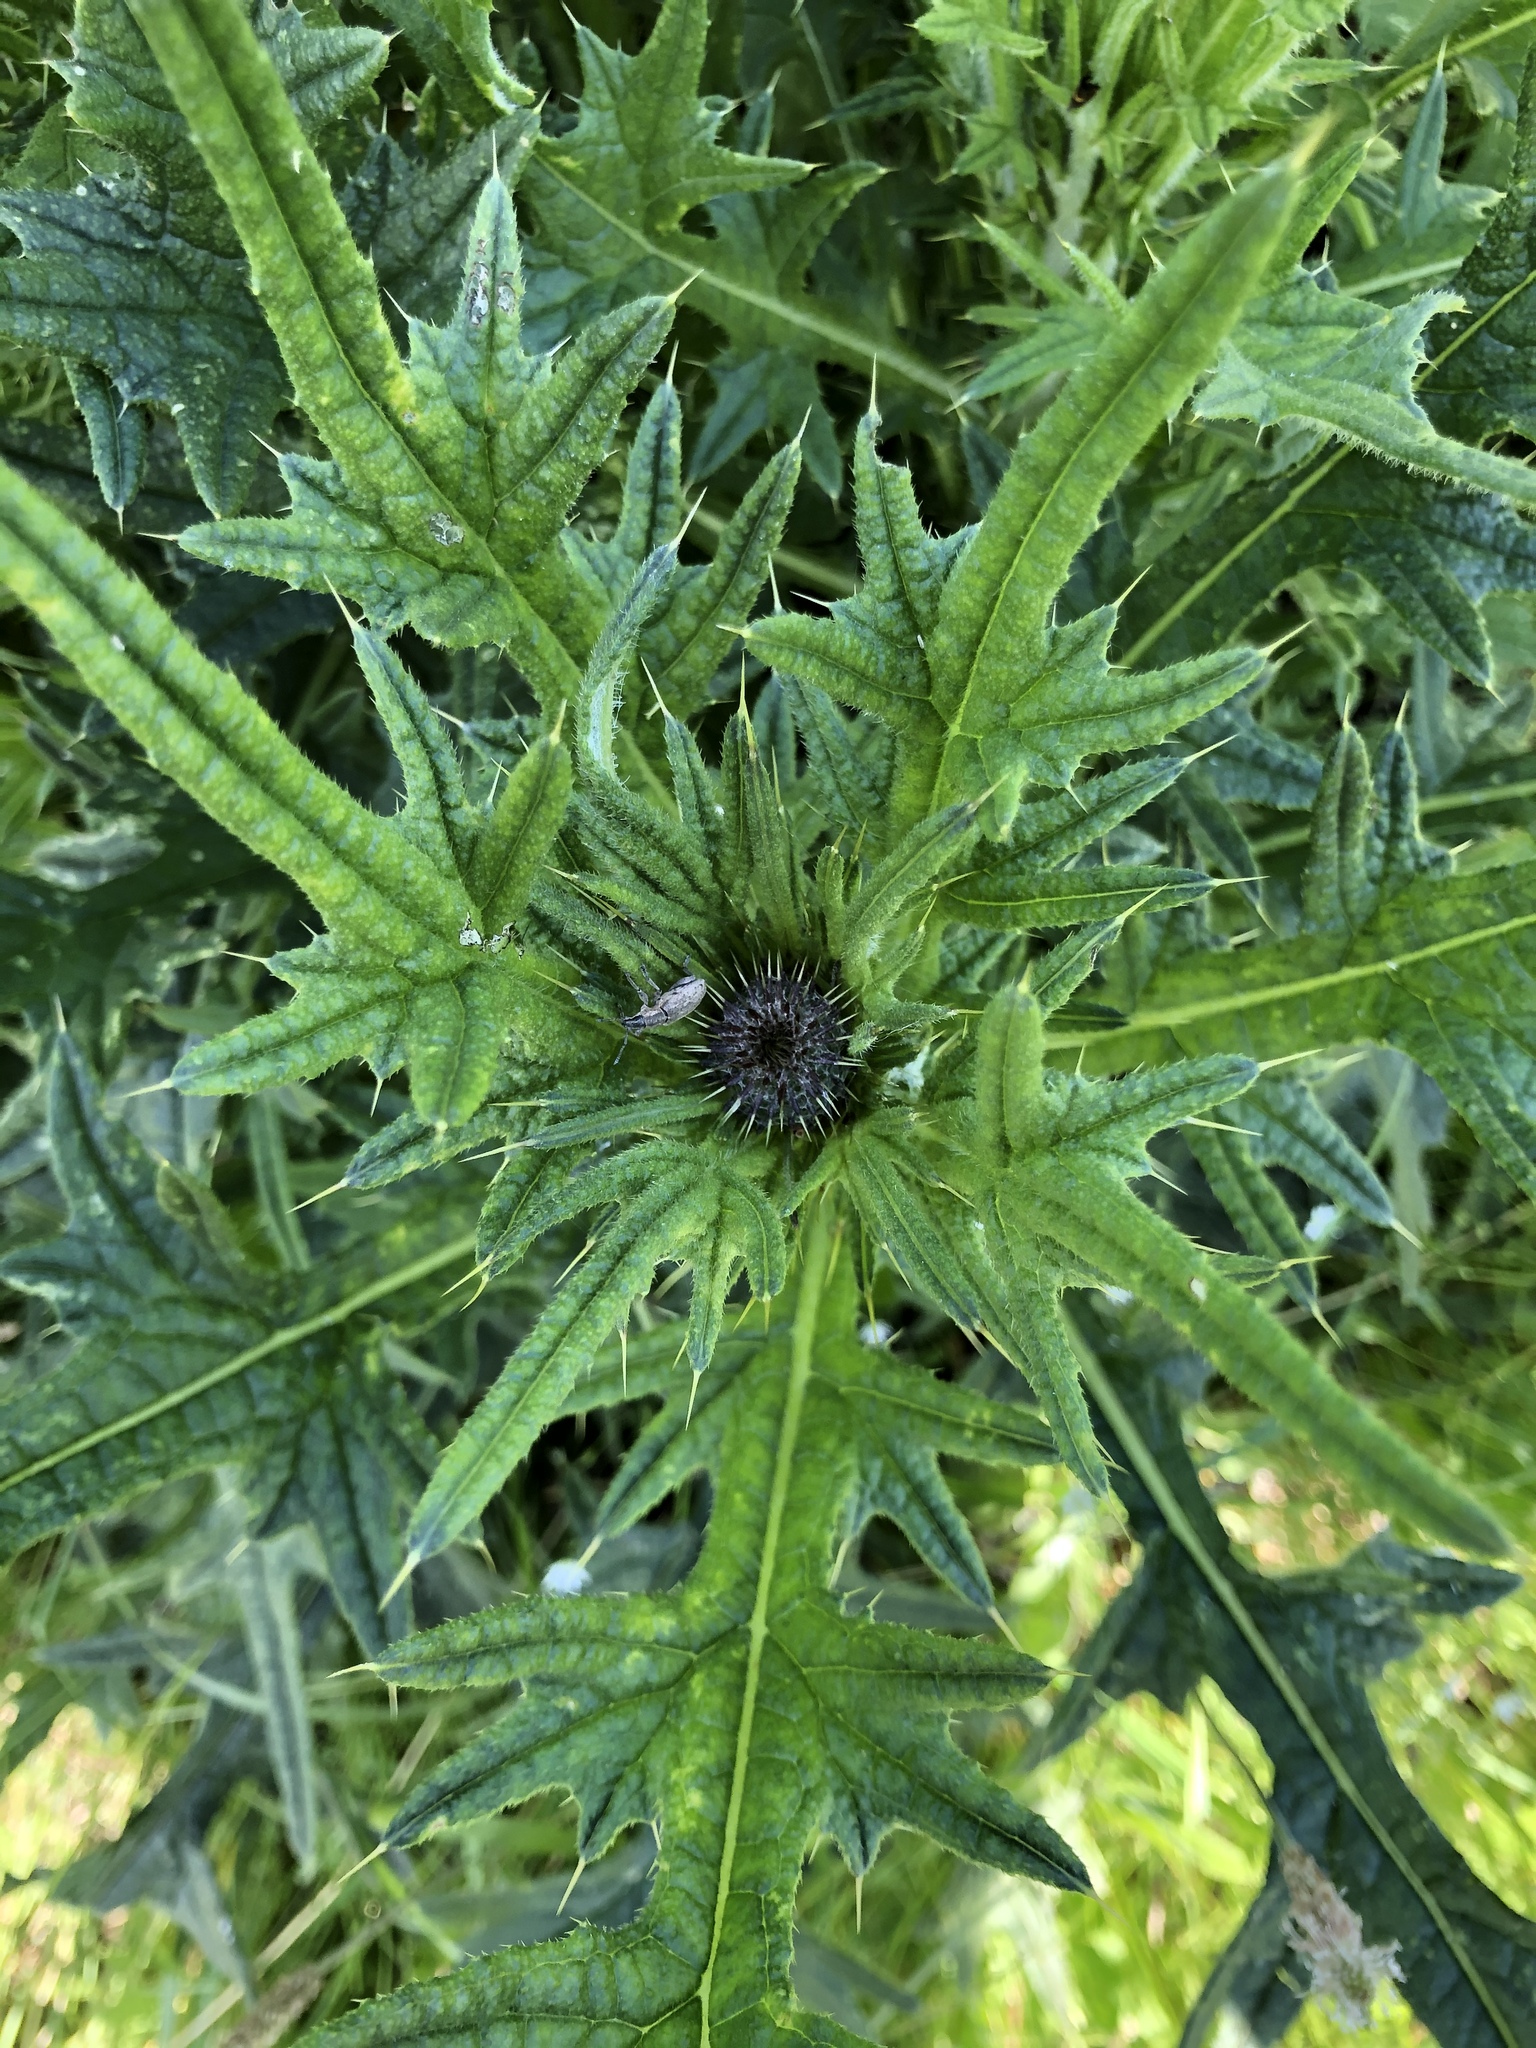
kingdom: Plantae
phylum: Tracheophyta
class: Magnoliopsida
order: Asterales
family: Asteraceae
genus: Cirsium
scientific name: Cirsium vulgare
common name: Bull thistle
